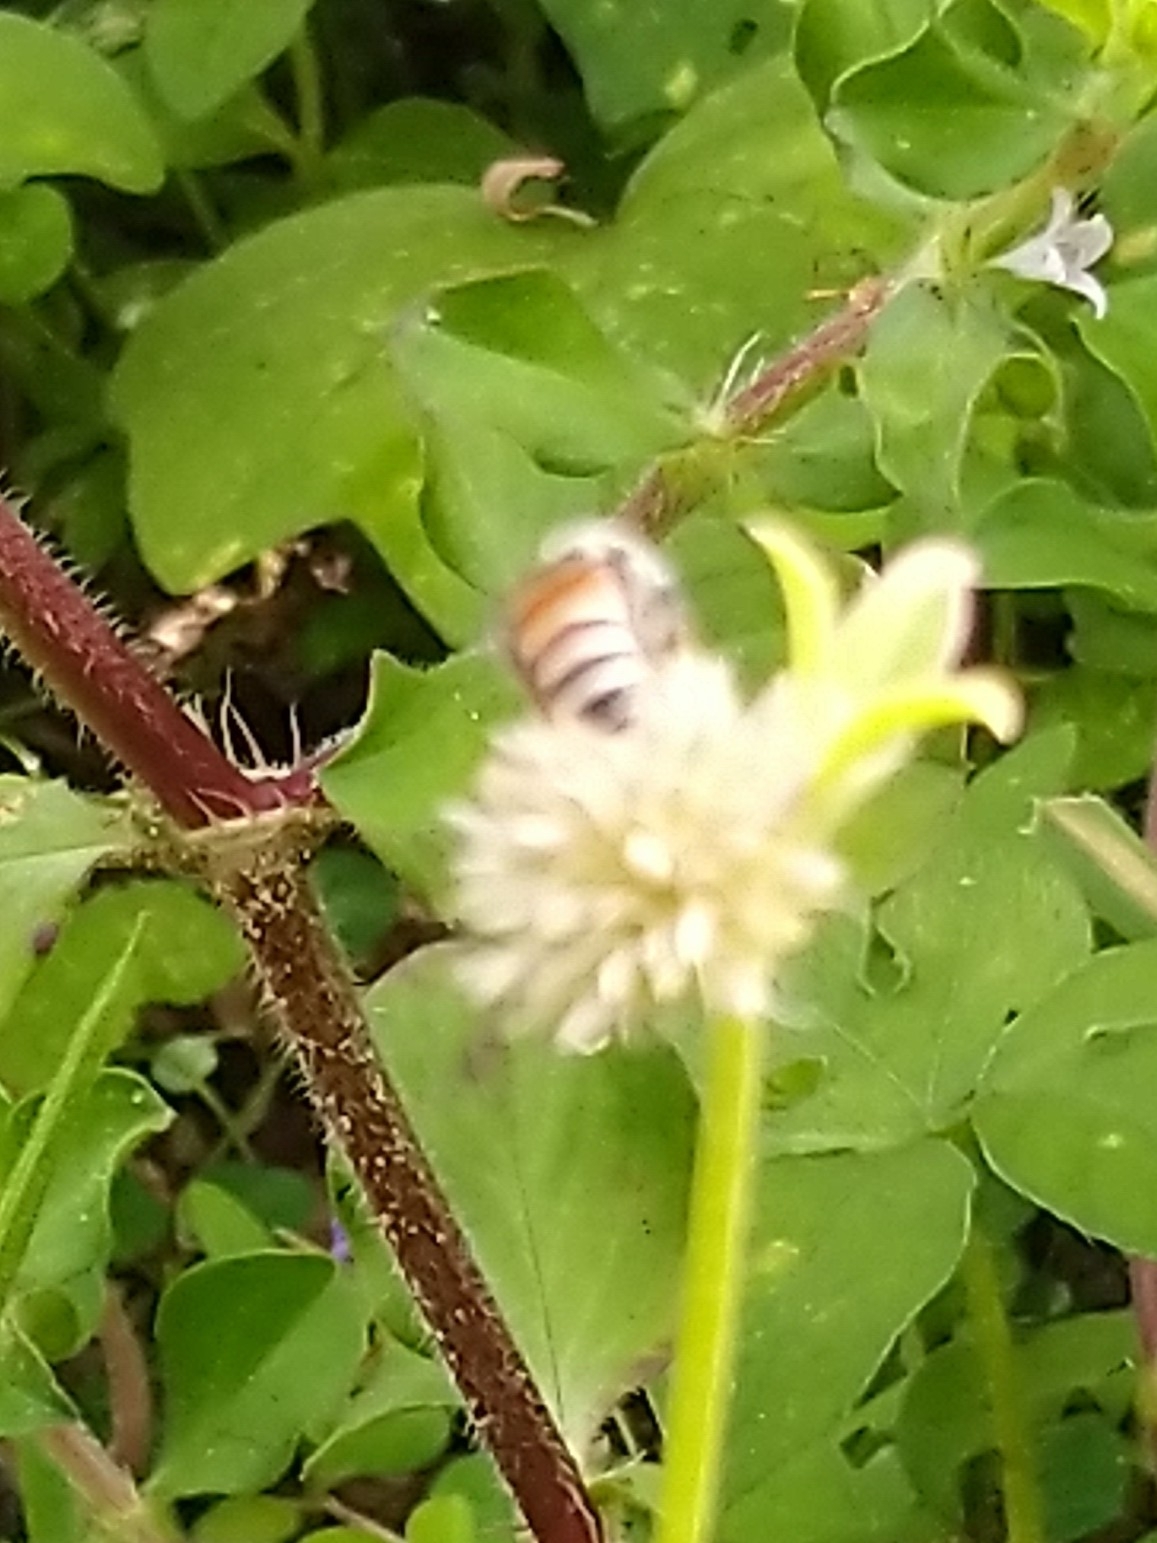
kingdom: Animalia
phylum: Arthropoda
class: Insecta
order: Hymenoptera
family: Apidae
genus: Apis
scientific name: Apis florea
